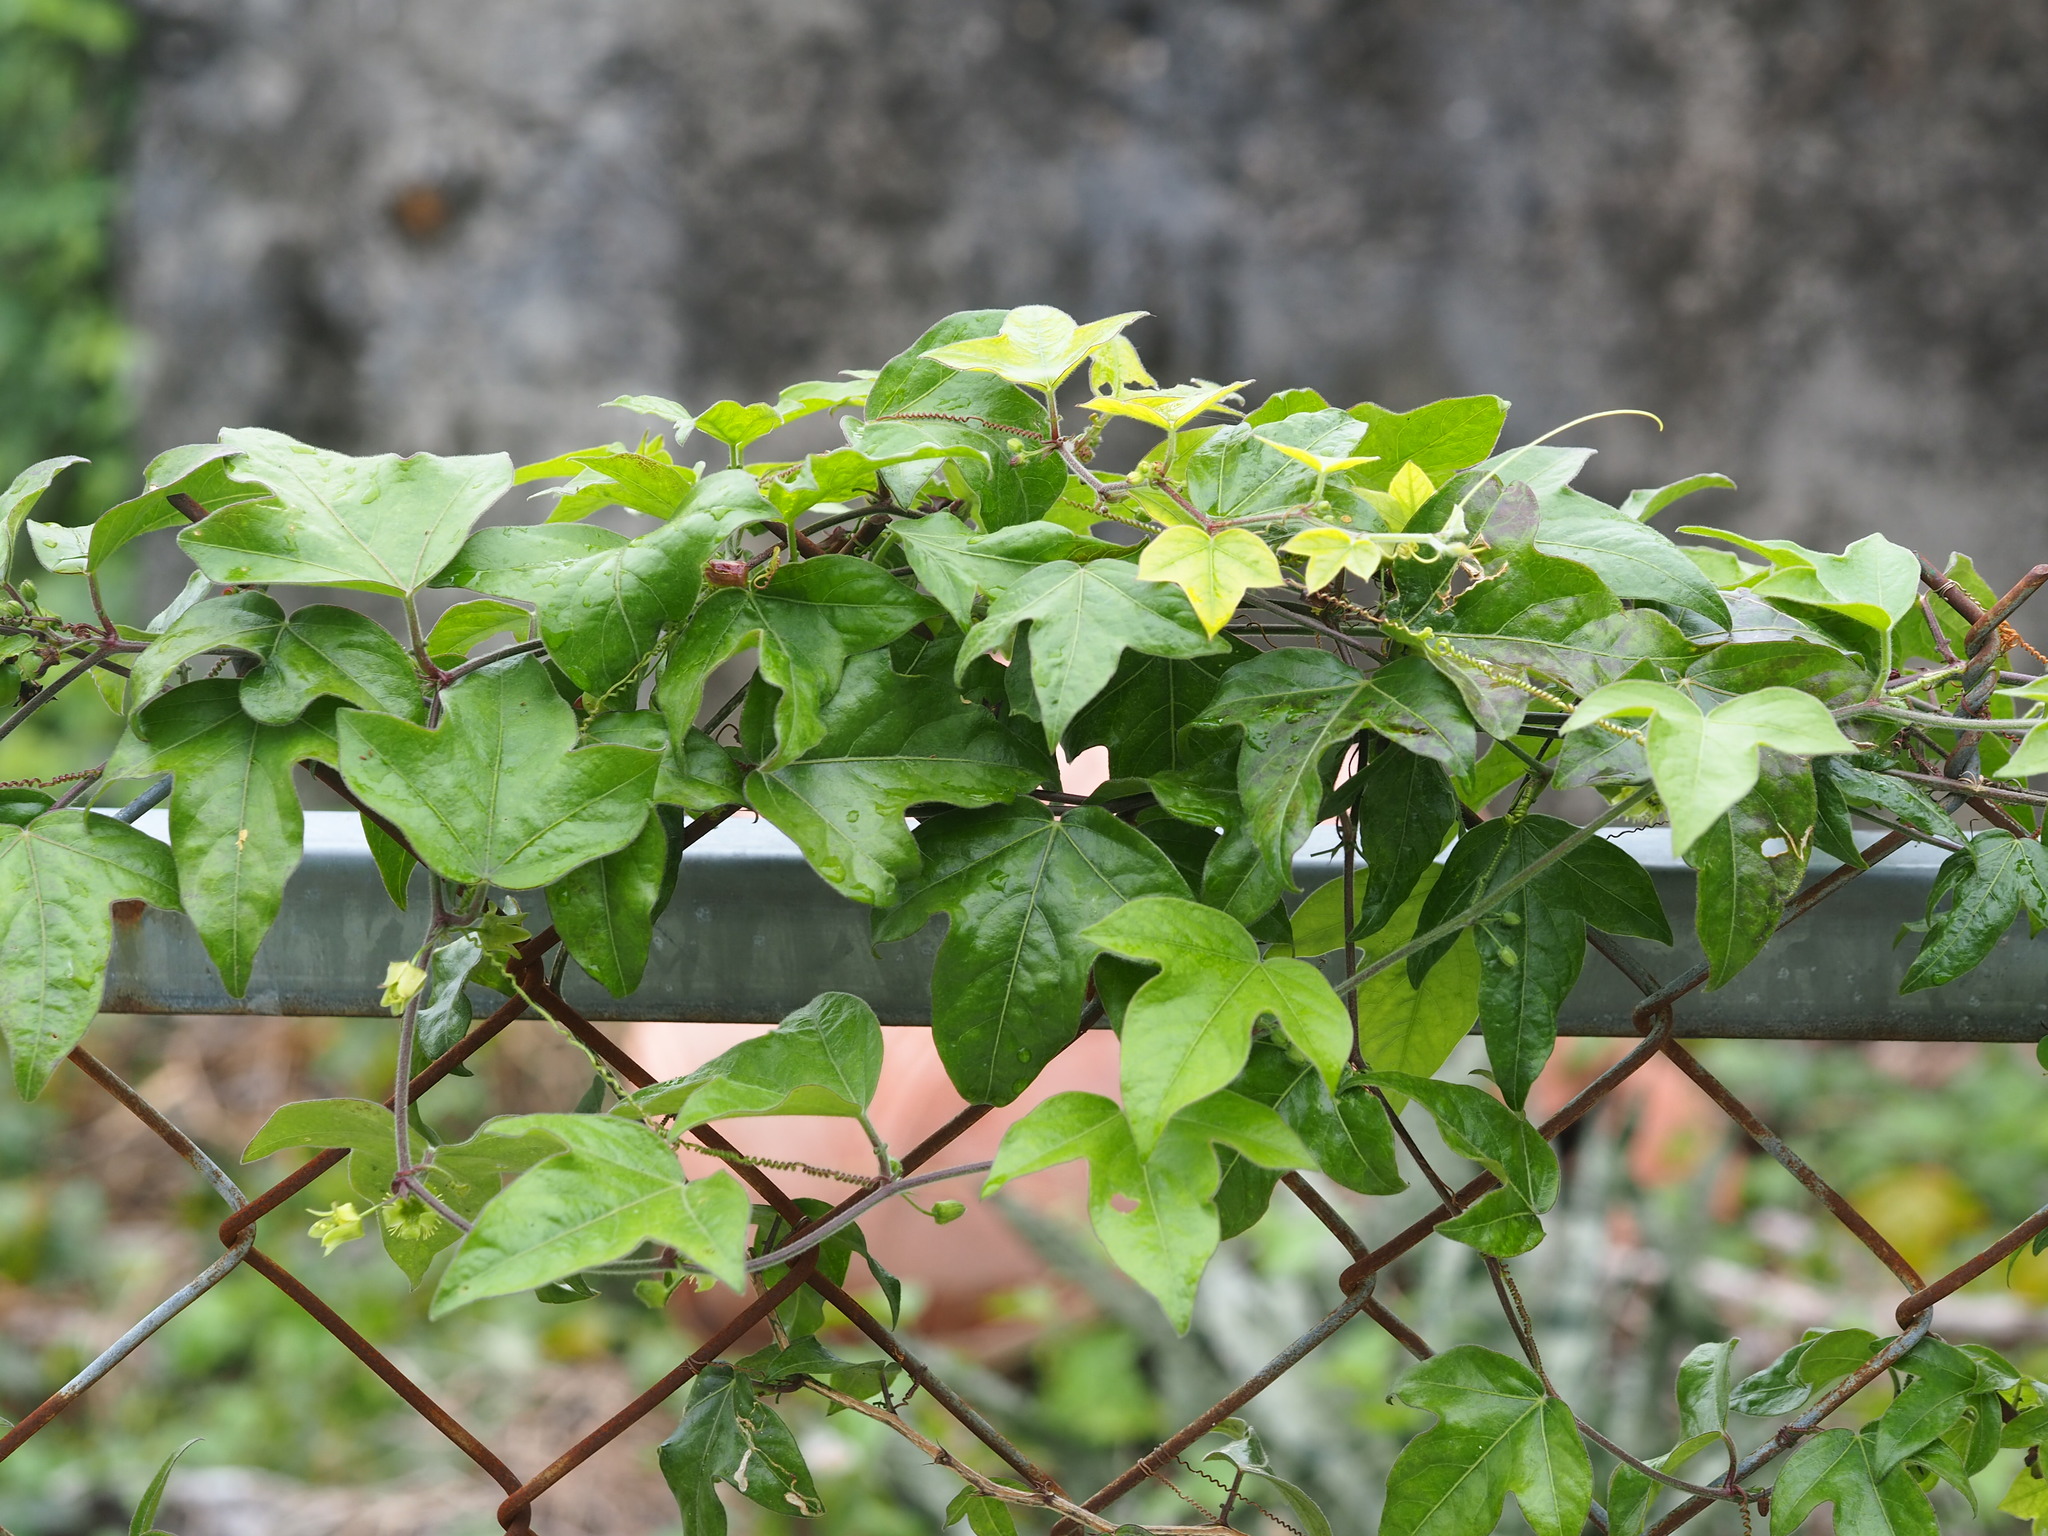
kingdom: Plantae
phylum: Tracheophyta
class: Magnoliopsida
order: Malpighiales
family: Passifloraceae
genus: Passiflora
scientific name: Passiflora suberosa
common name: Wild passionfruit
